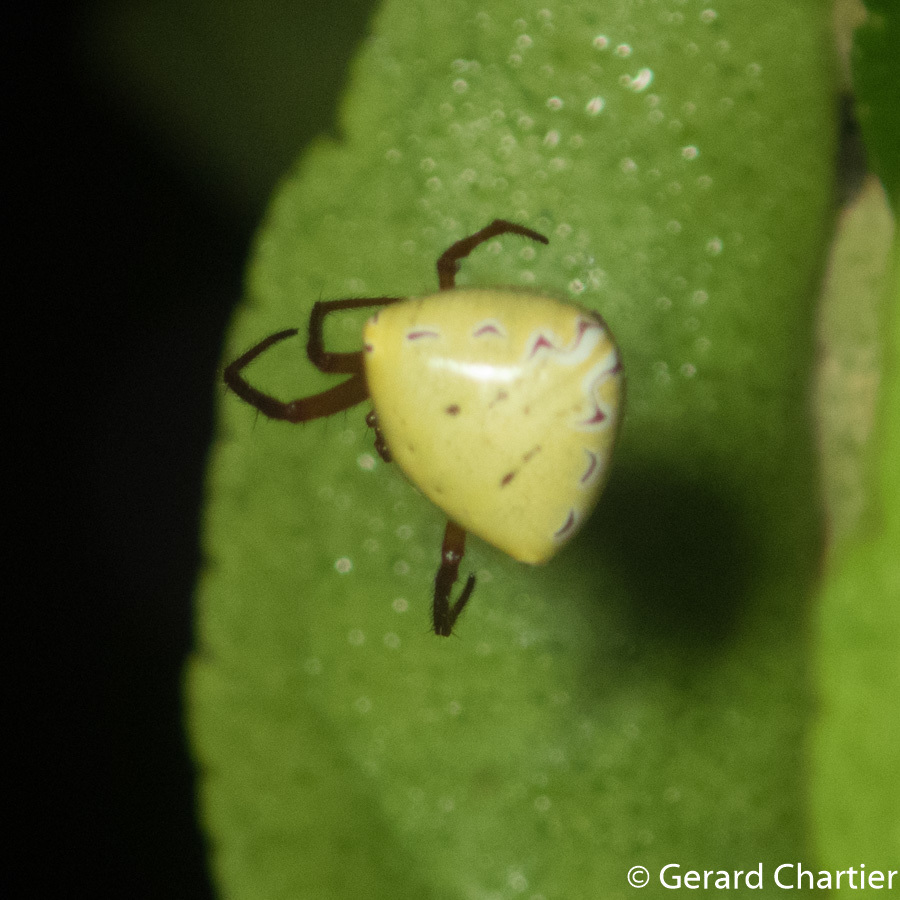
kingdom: Animalia
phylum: Arthropoda
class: Arachnida
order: Araneae
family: Araneidae
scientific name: Araneidae
